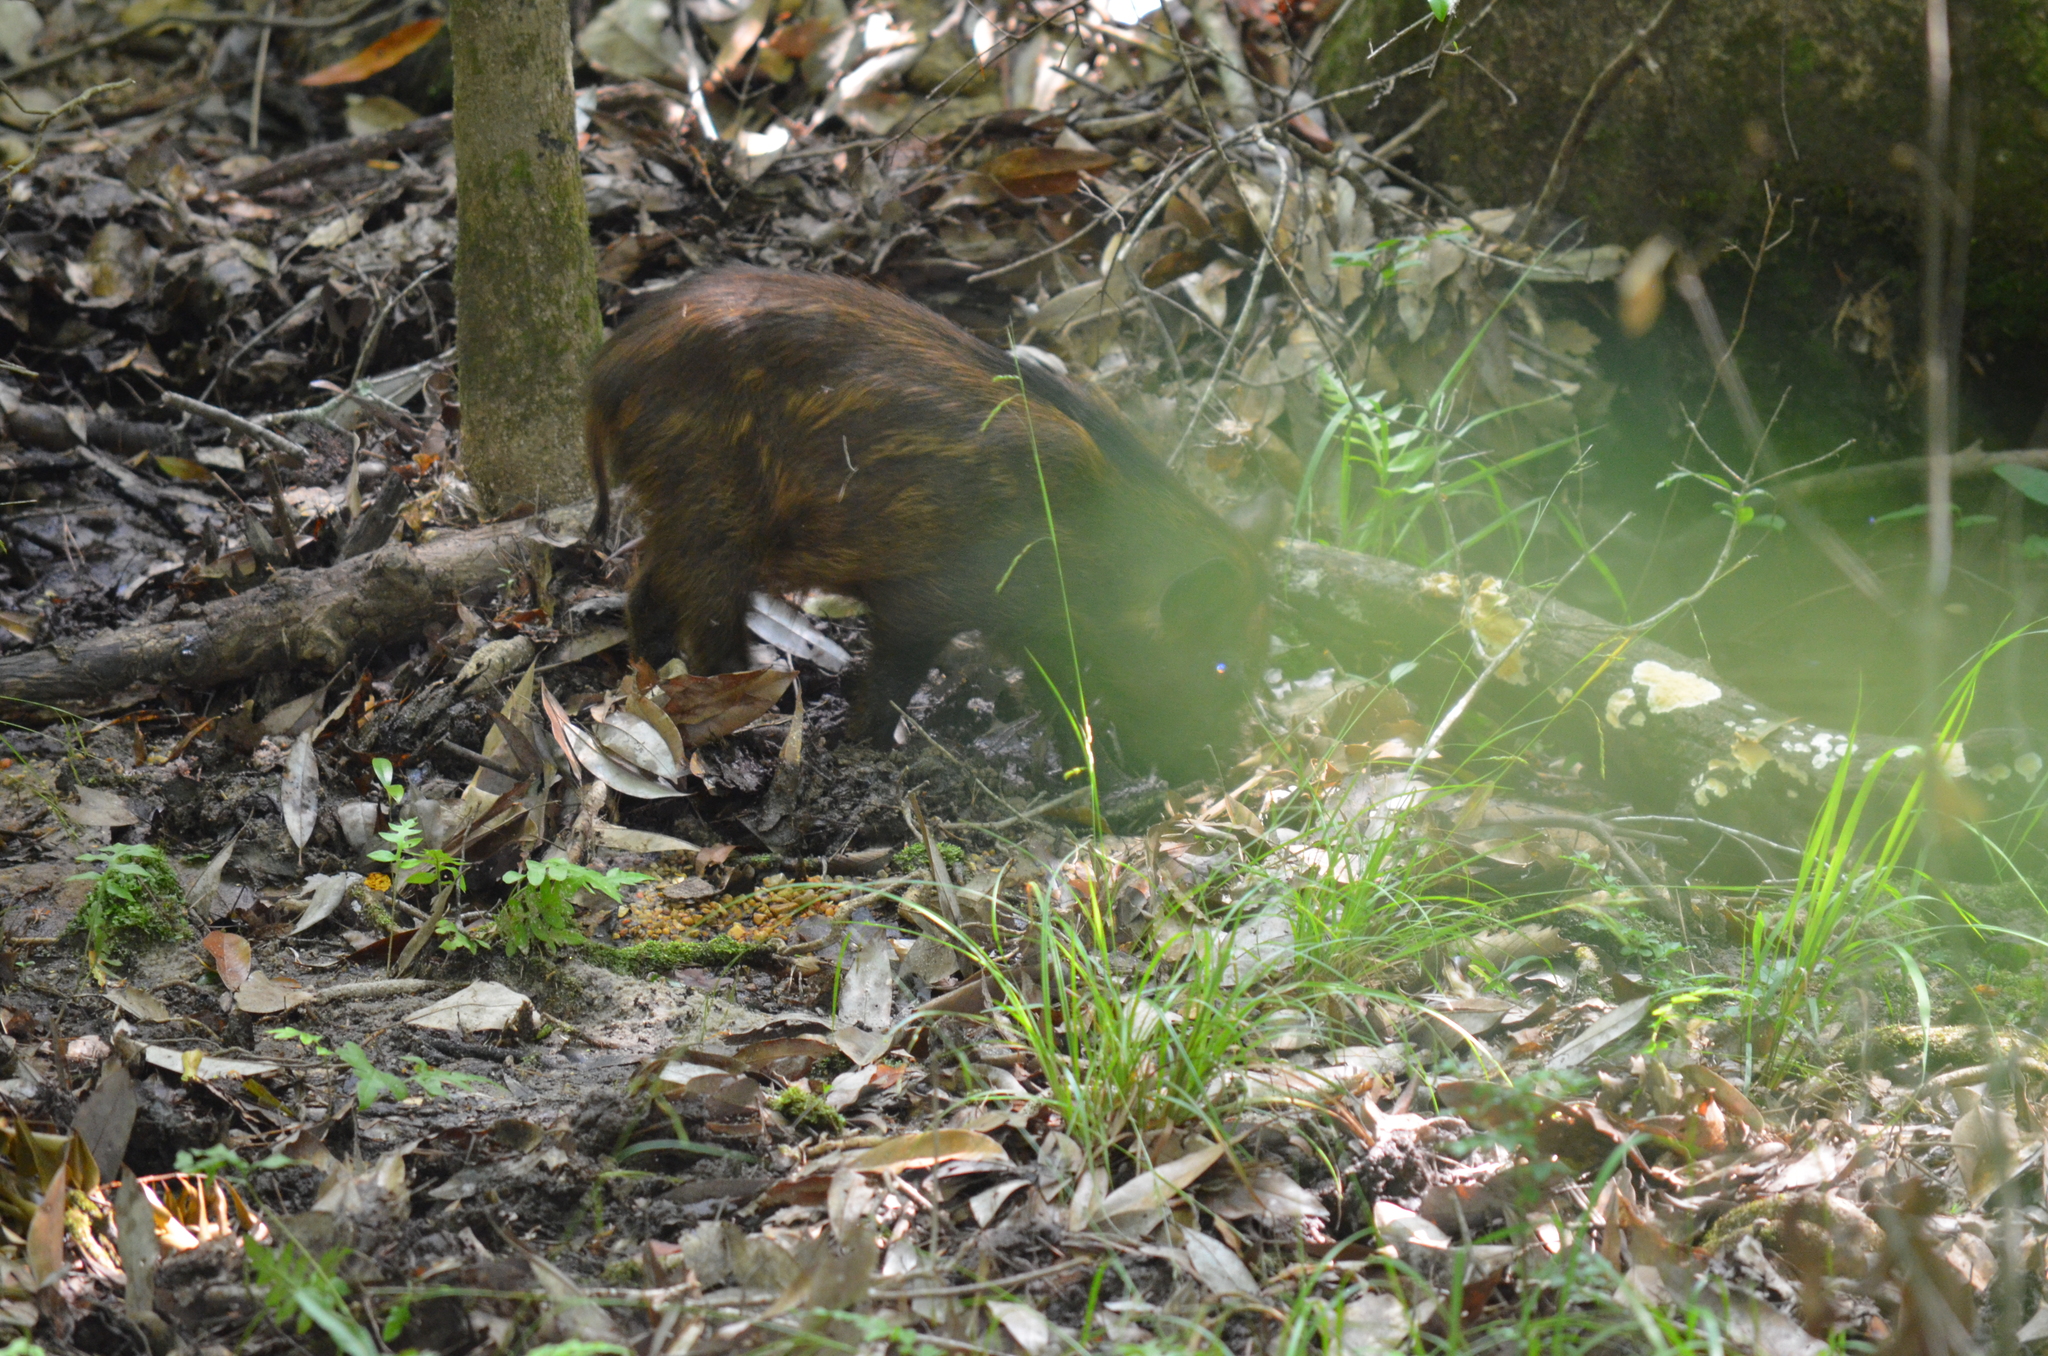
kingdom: Animalia
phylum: Chordata
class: Mammalia
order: Artiodactyla
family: Suidae
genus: Sus
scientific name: Sus scrofa
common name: Wild boar
